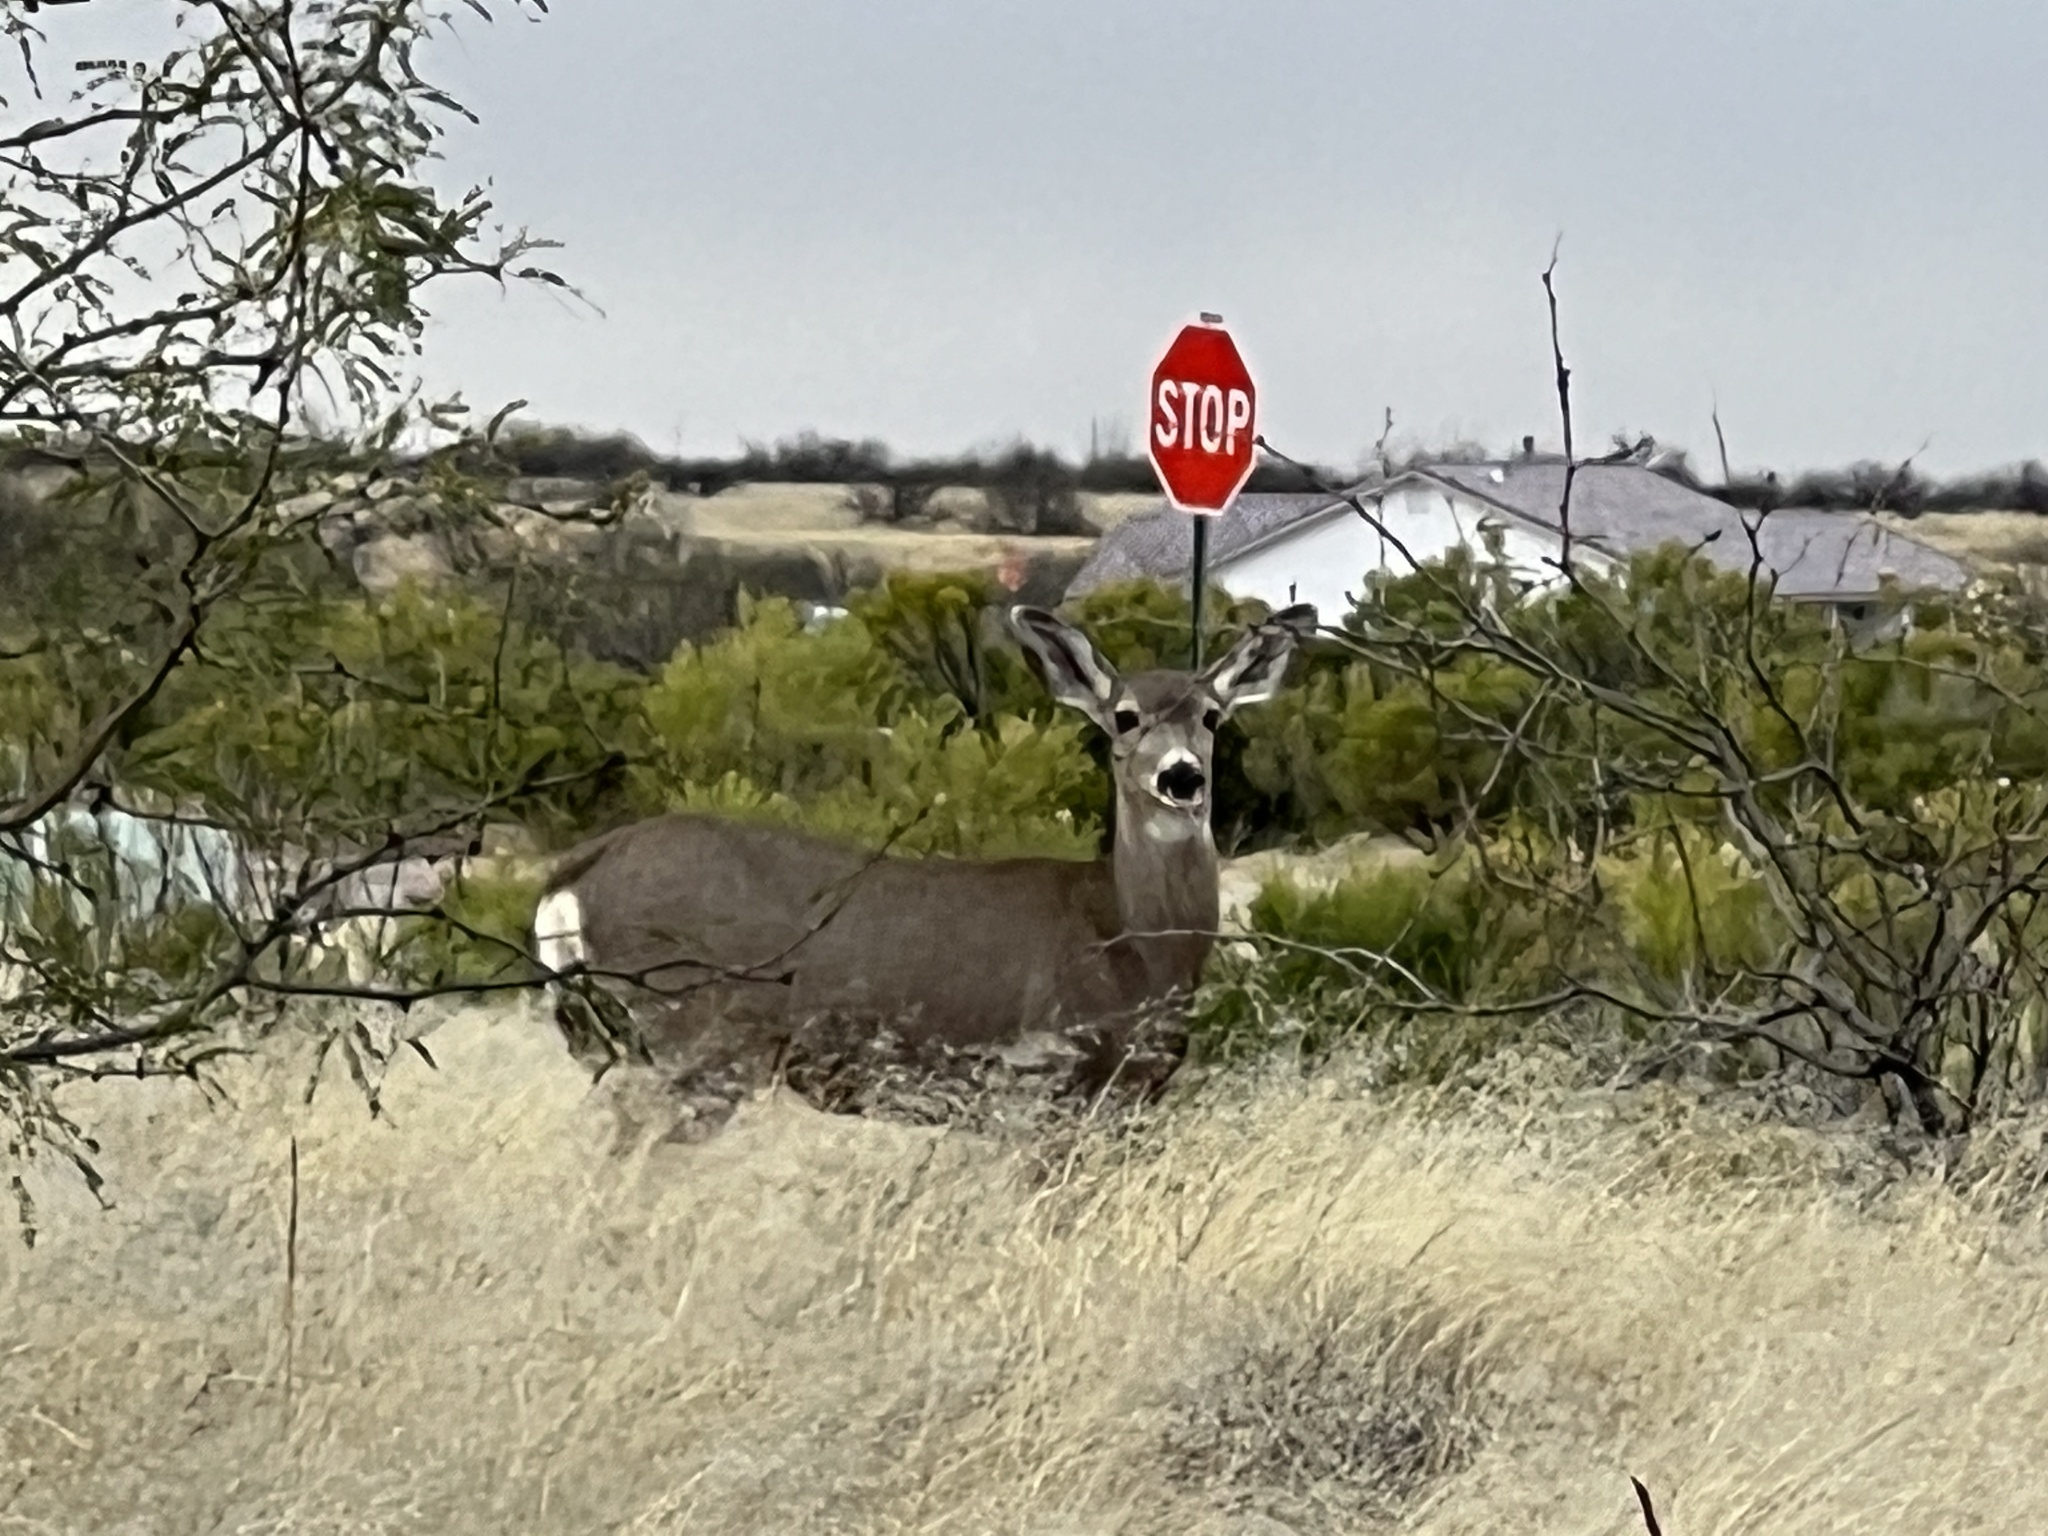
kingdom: Animalia
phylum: Chordata
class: Mammalia
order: Artiodactyla
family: Cervidae
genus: Odocoileus
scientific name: Odocoileus hemionus
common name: Mule deer
